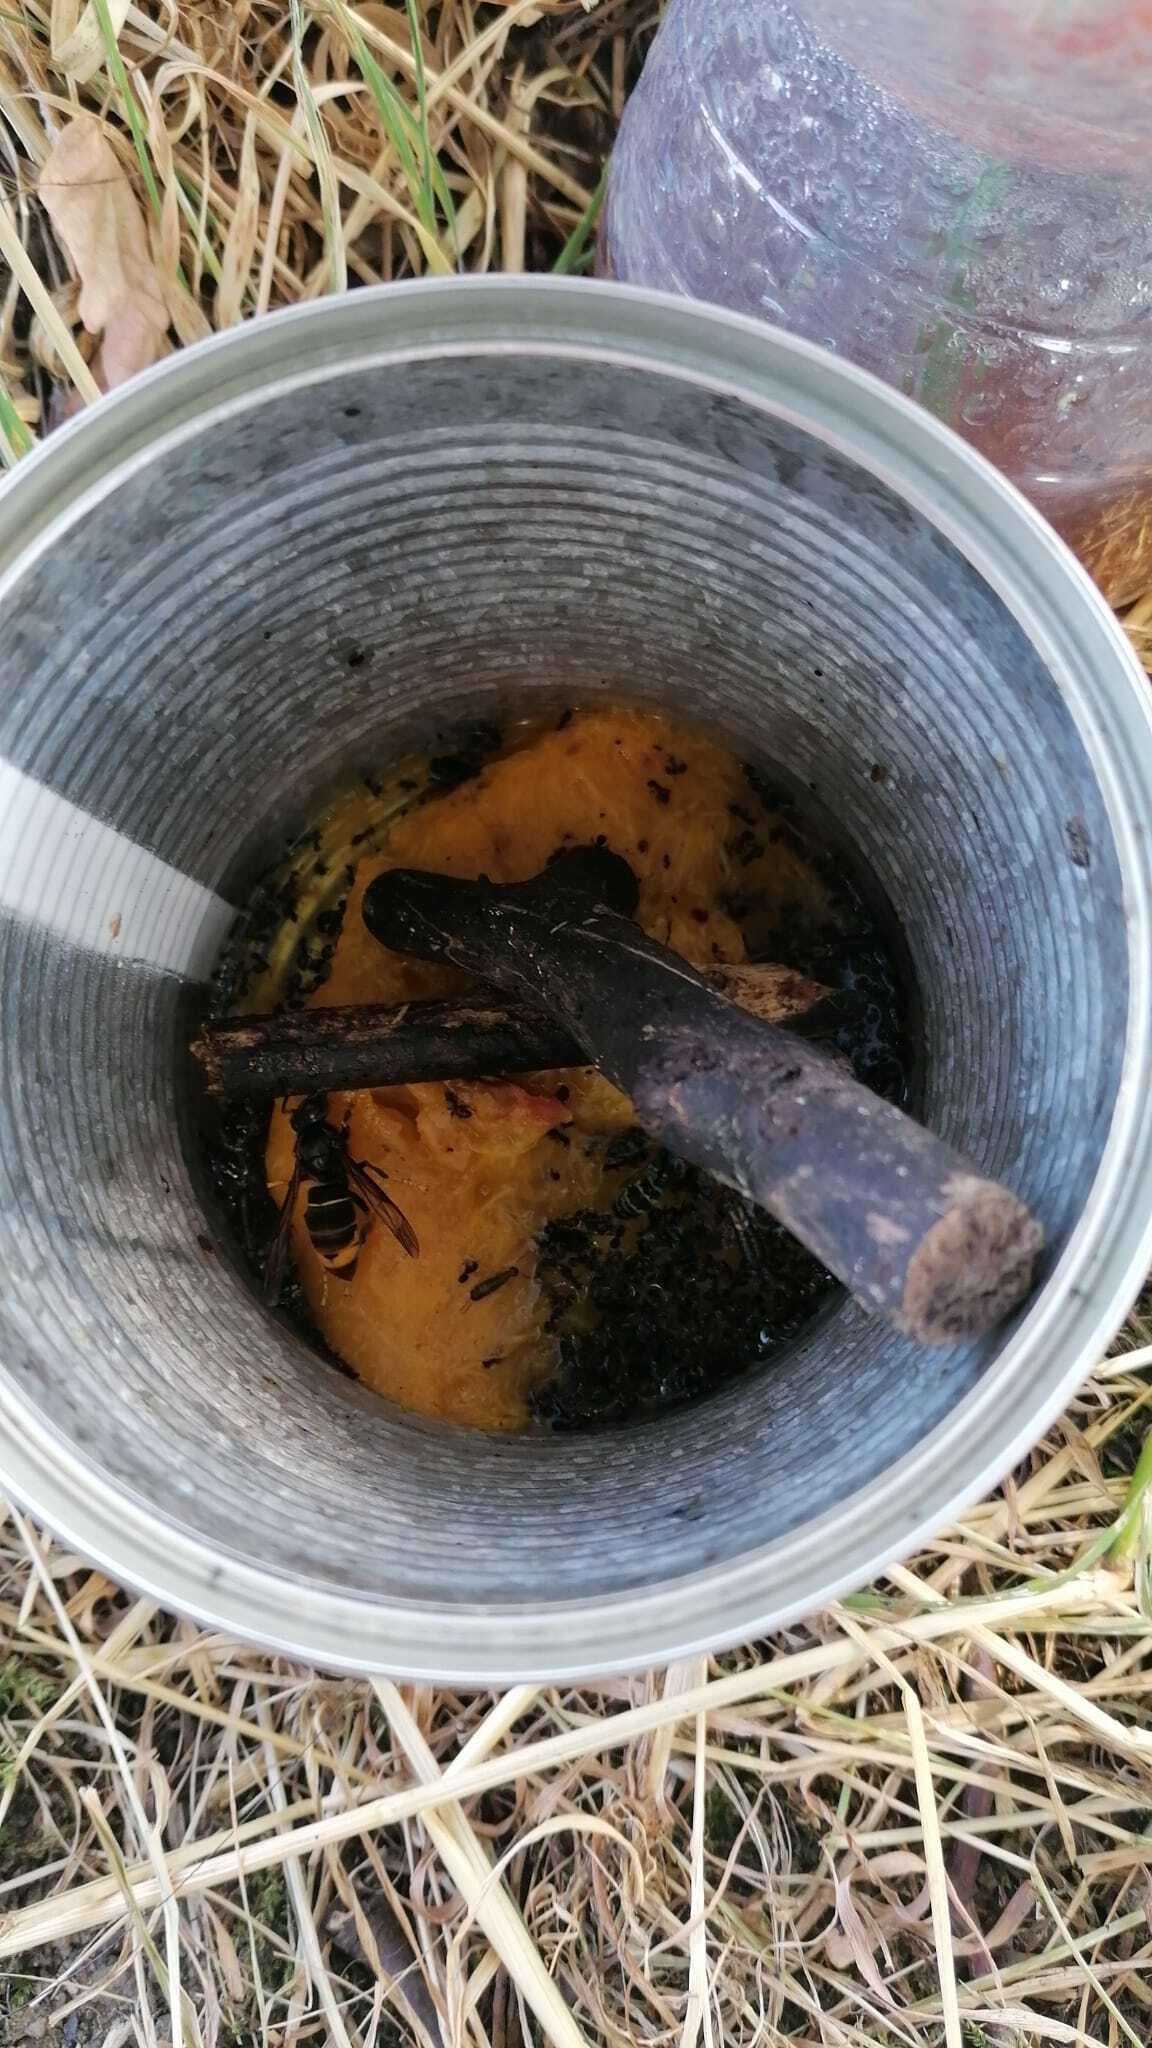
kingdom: Animalia
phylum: Arthropoda
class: Insecta
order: Hymenoptera
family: Vespidae
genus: Vespa
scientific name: Vespa velutina
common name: Asian hornet
